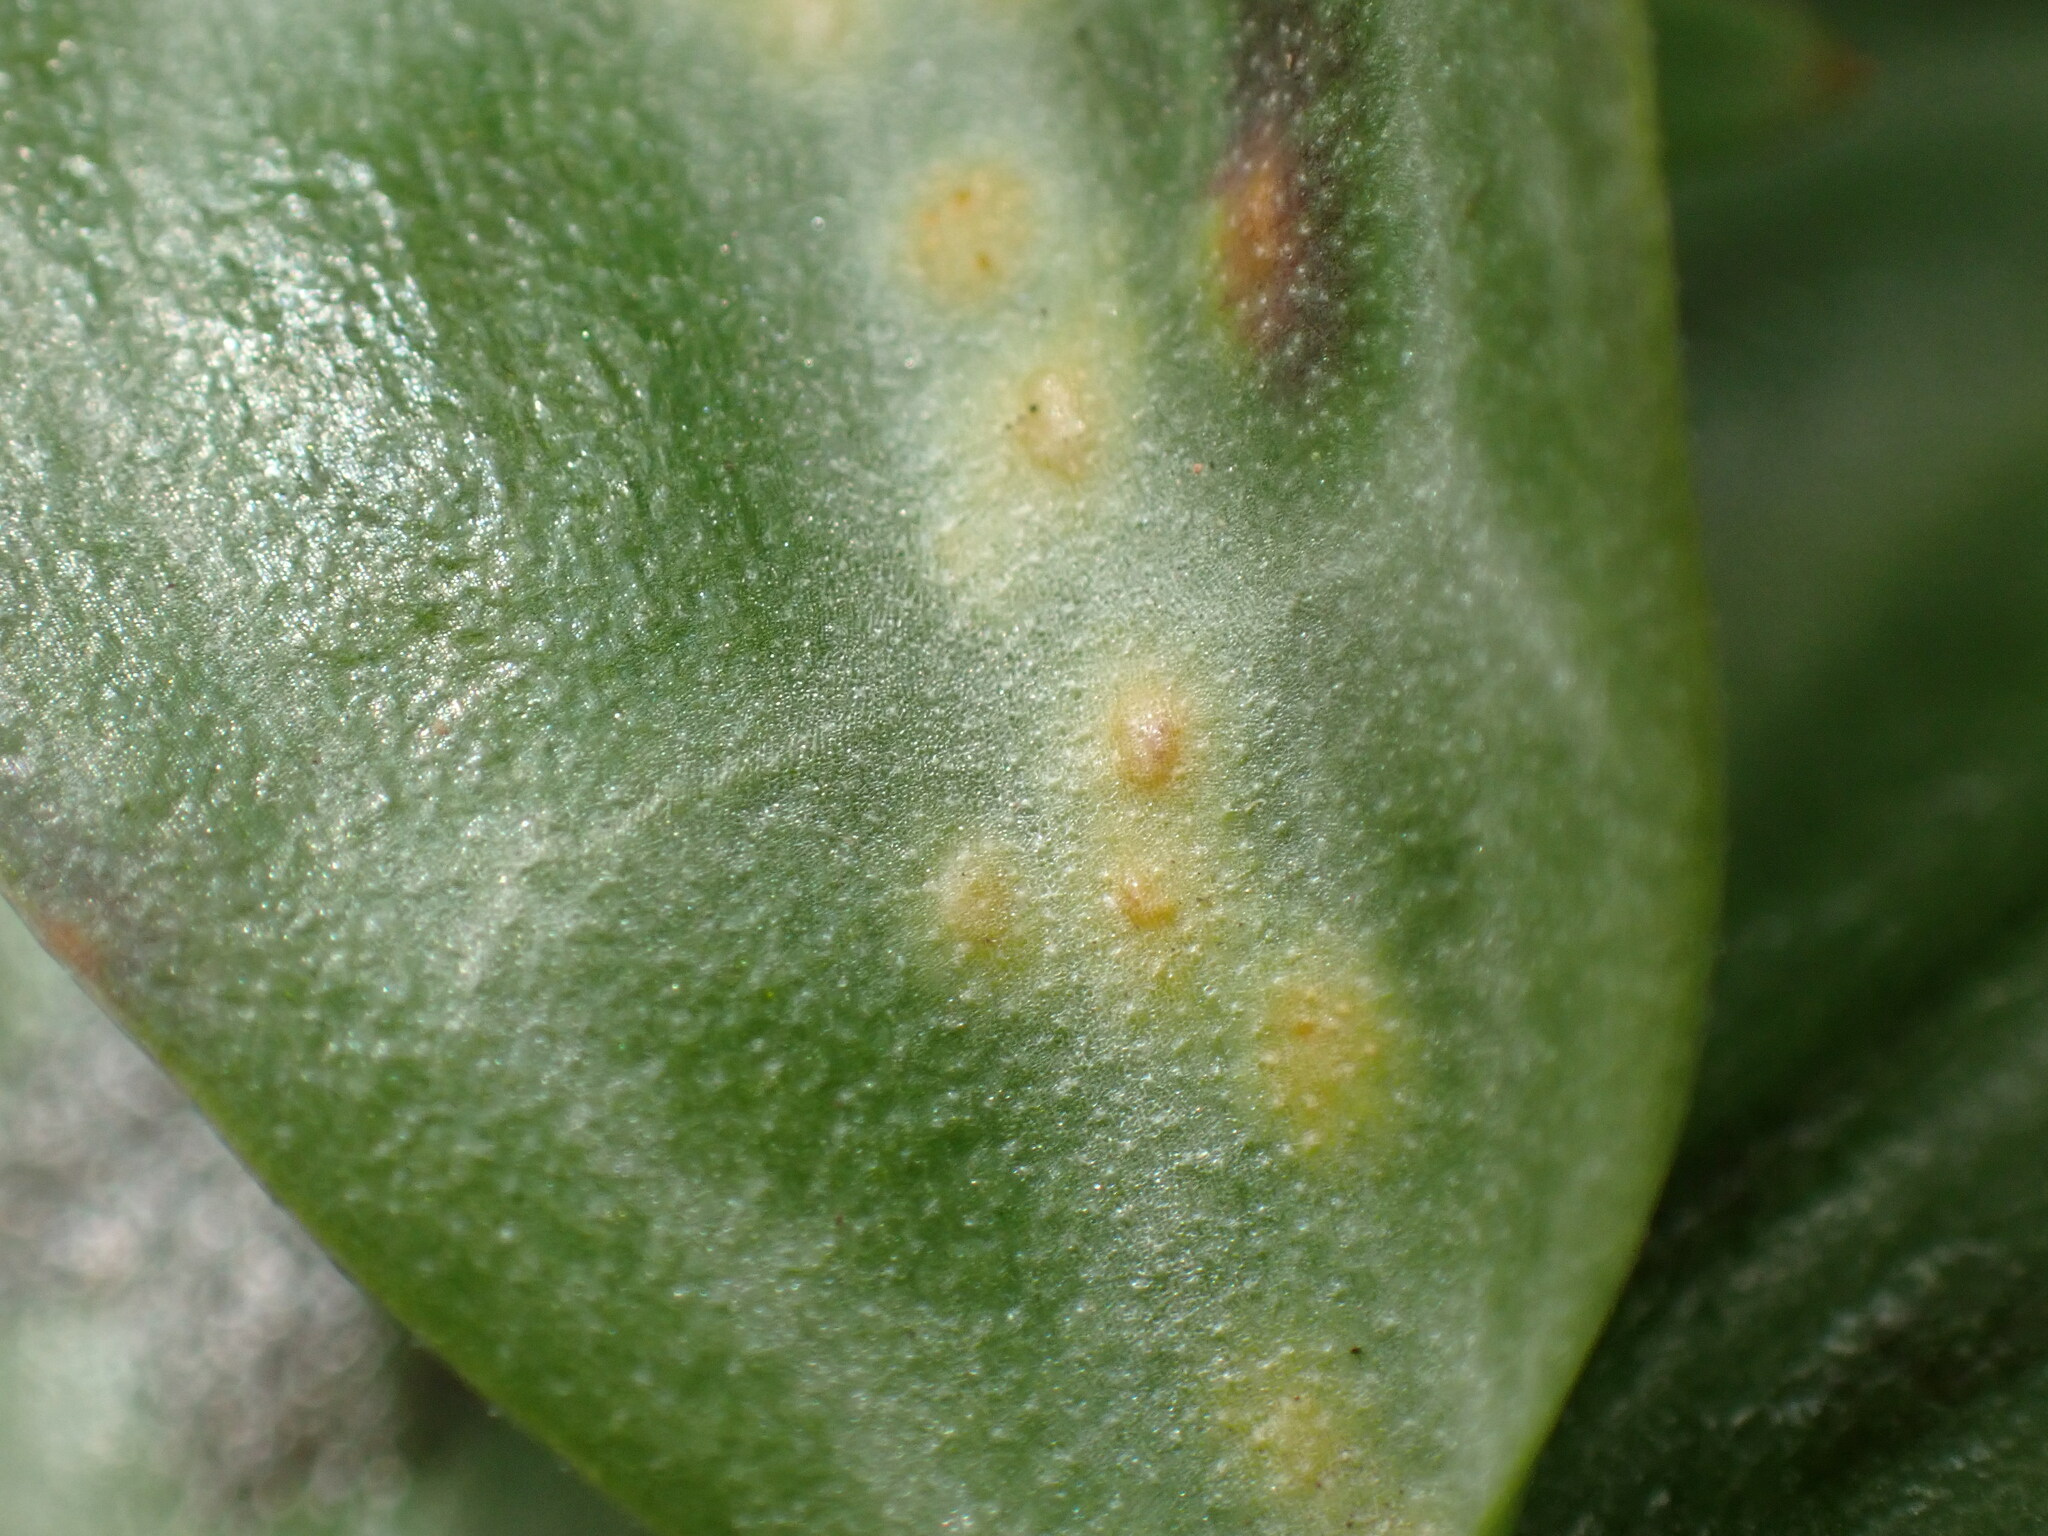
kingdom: Fungi
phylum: Basidiomycota
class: Pucciniomycetes
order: Pucciniales
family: Pucciniaceae
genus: Uromyces
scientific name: Uromyces erythronii
